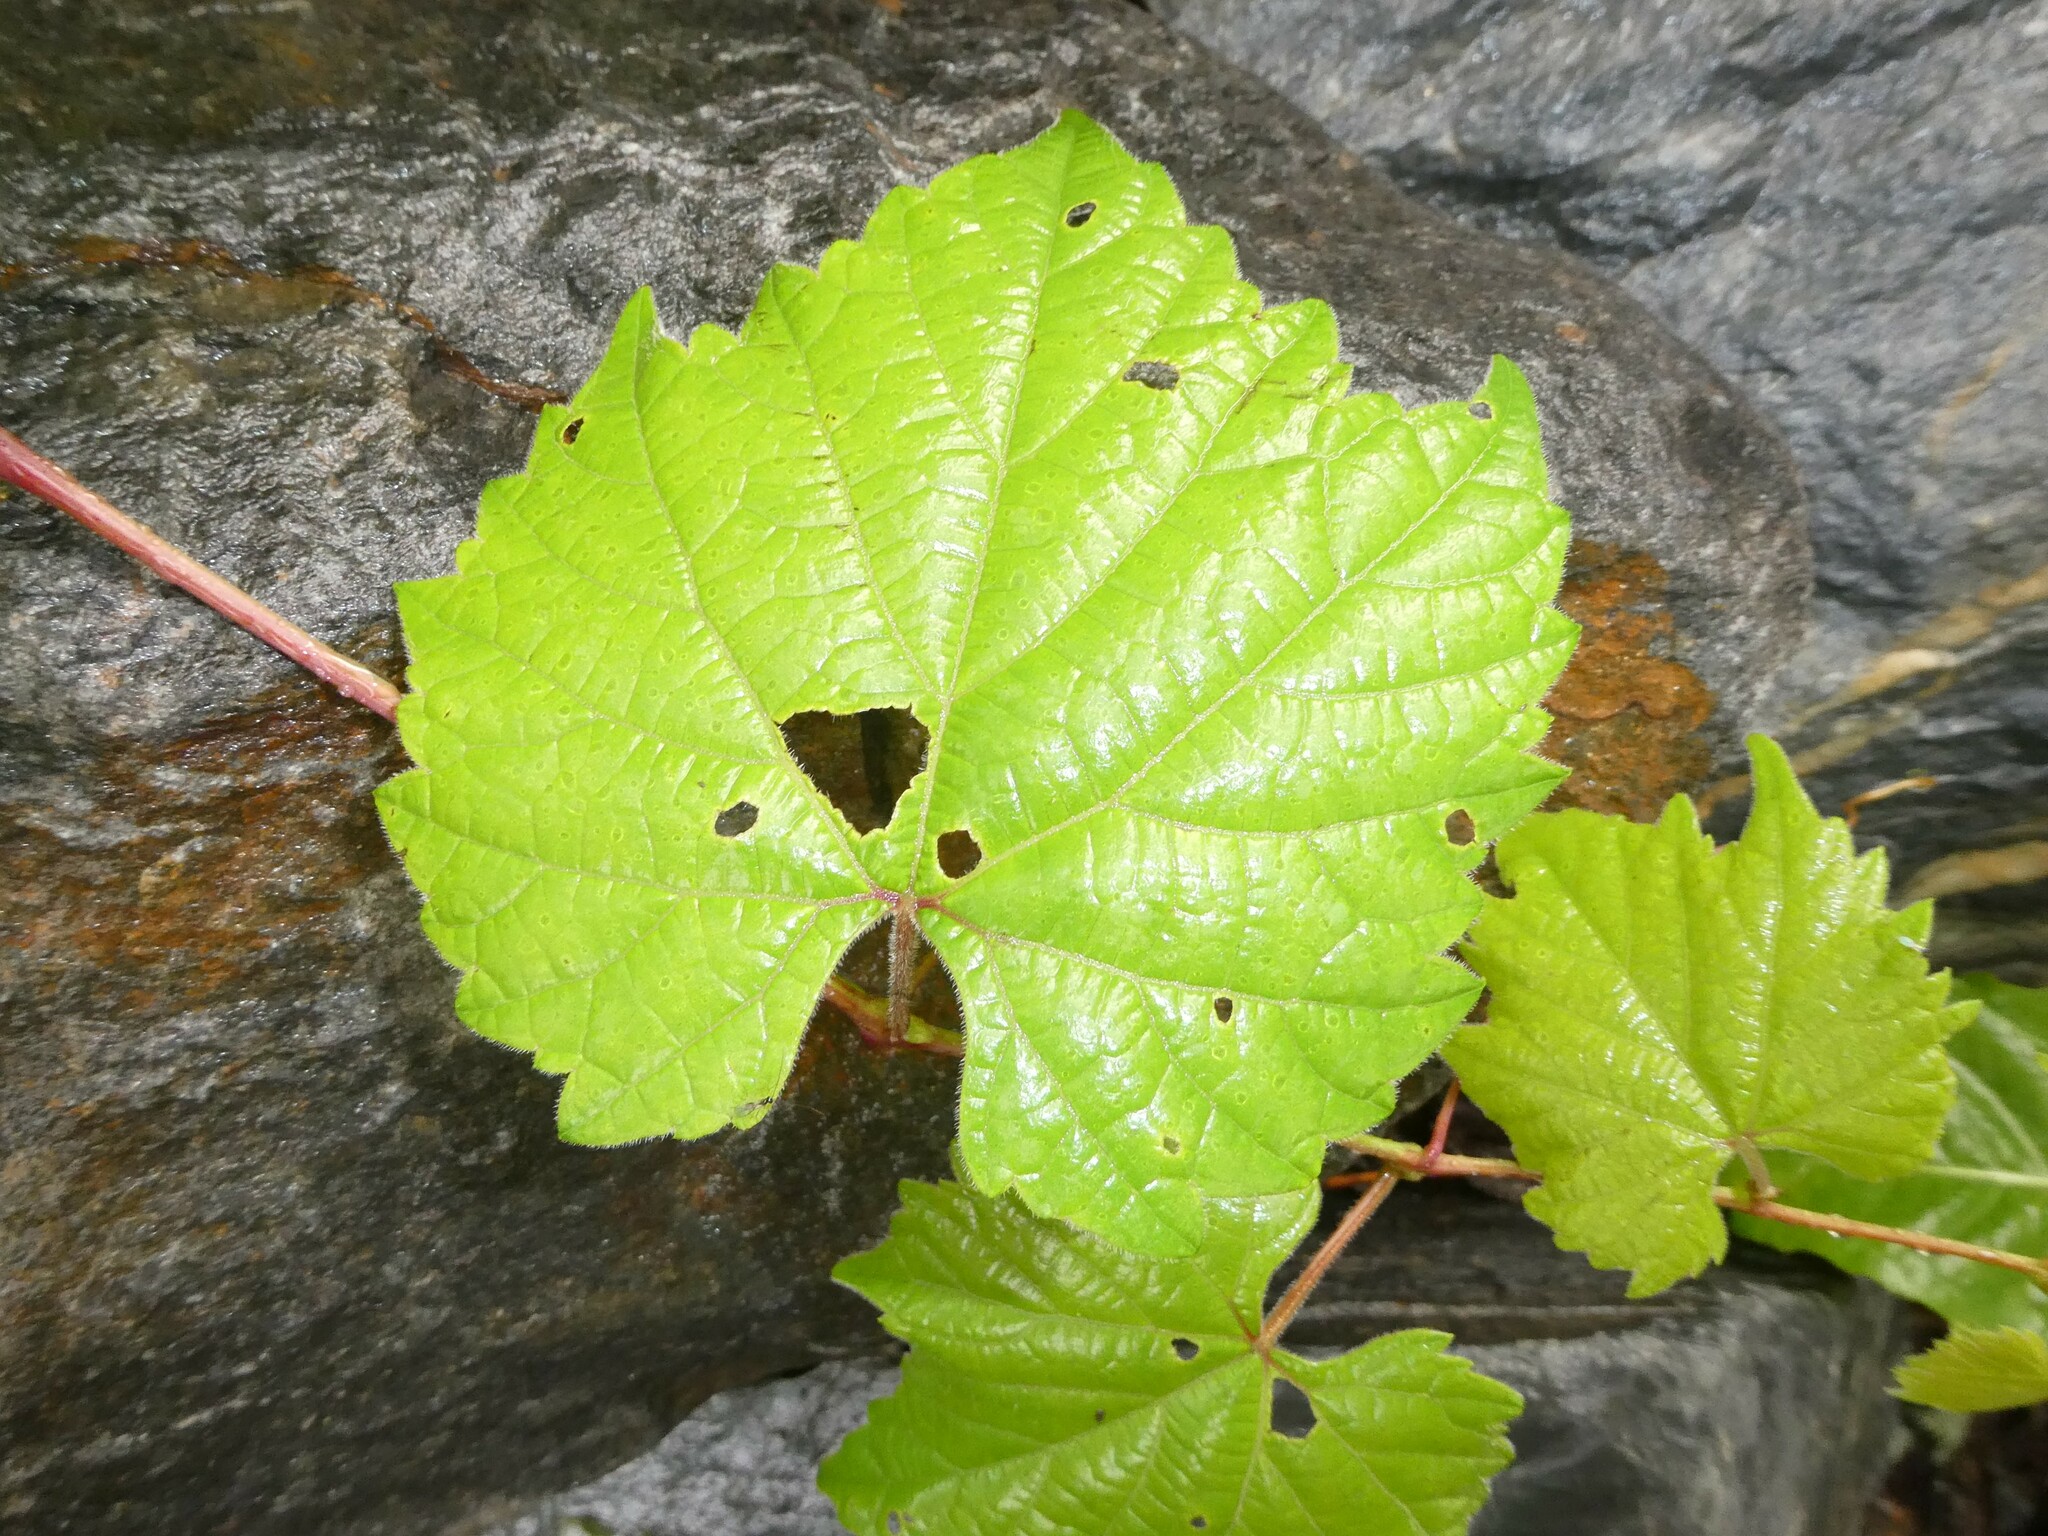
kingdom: Plantae
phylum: Tracheophyta
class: Magnoliopsida
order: Vitales
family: Vitaceae
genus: Vitis
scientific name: Vitis riparia
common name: Frost grape
